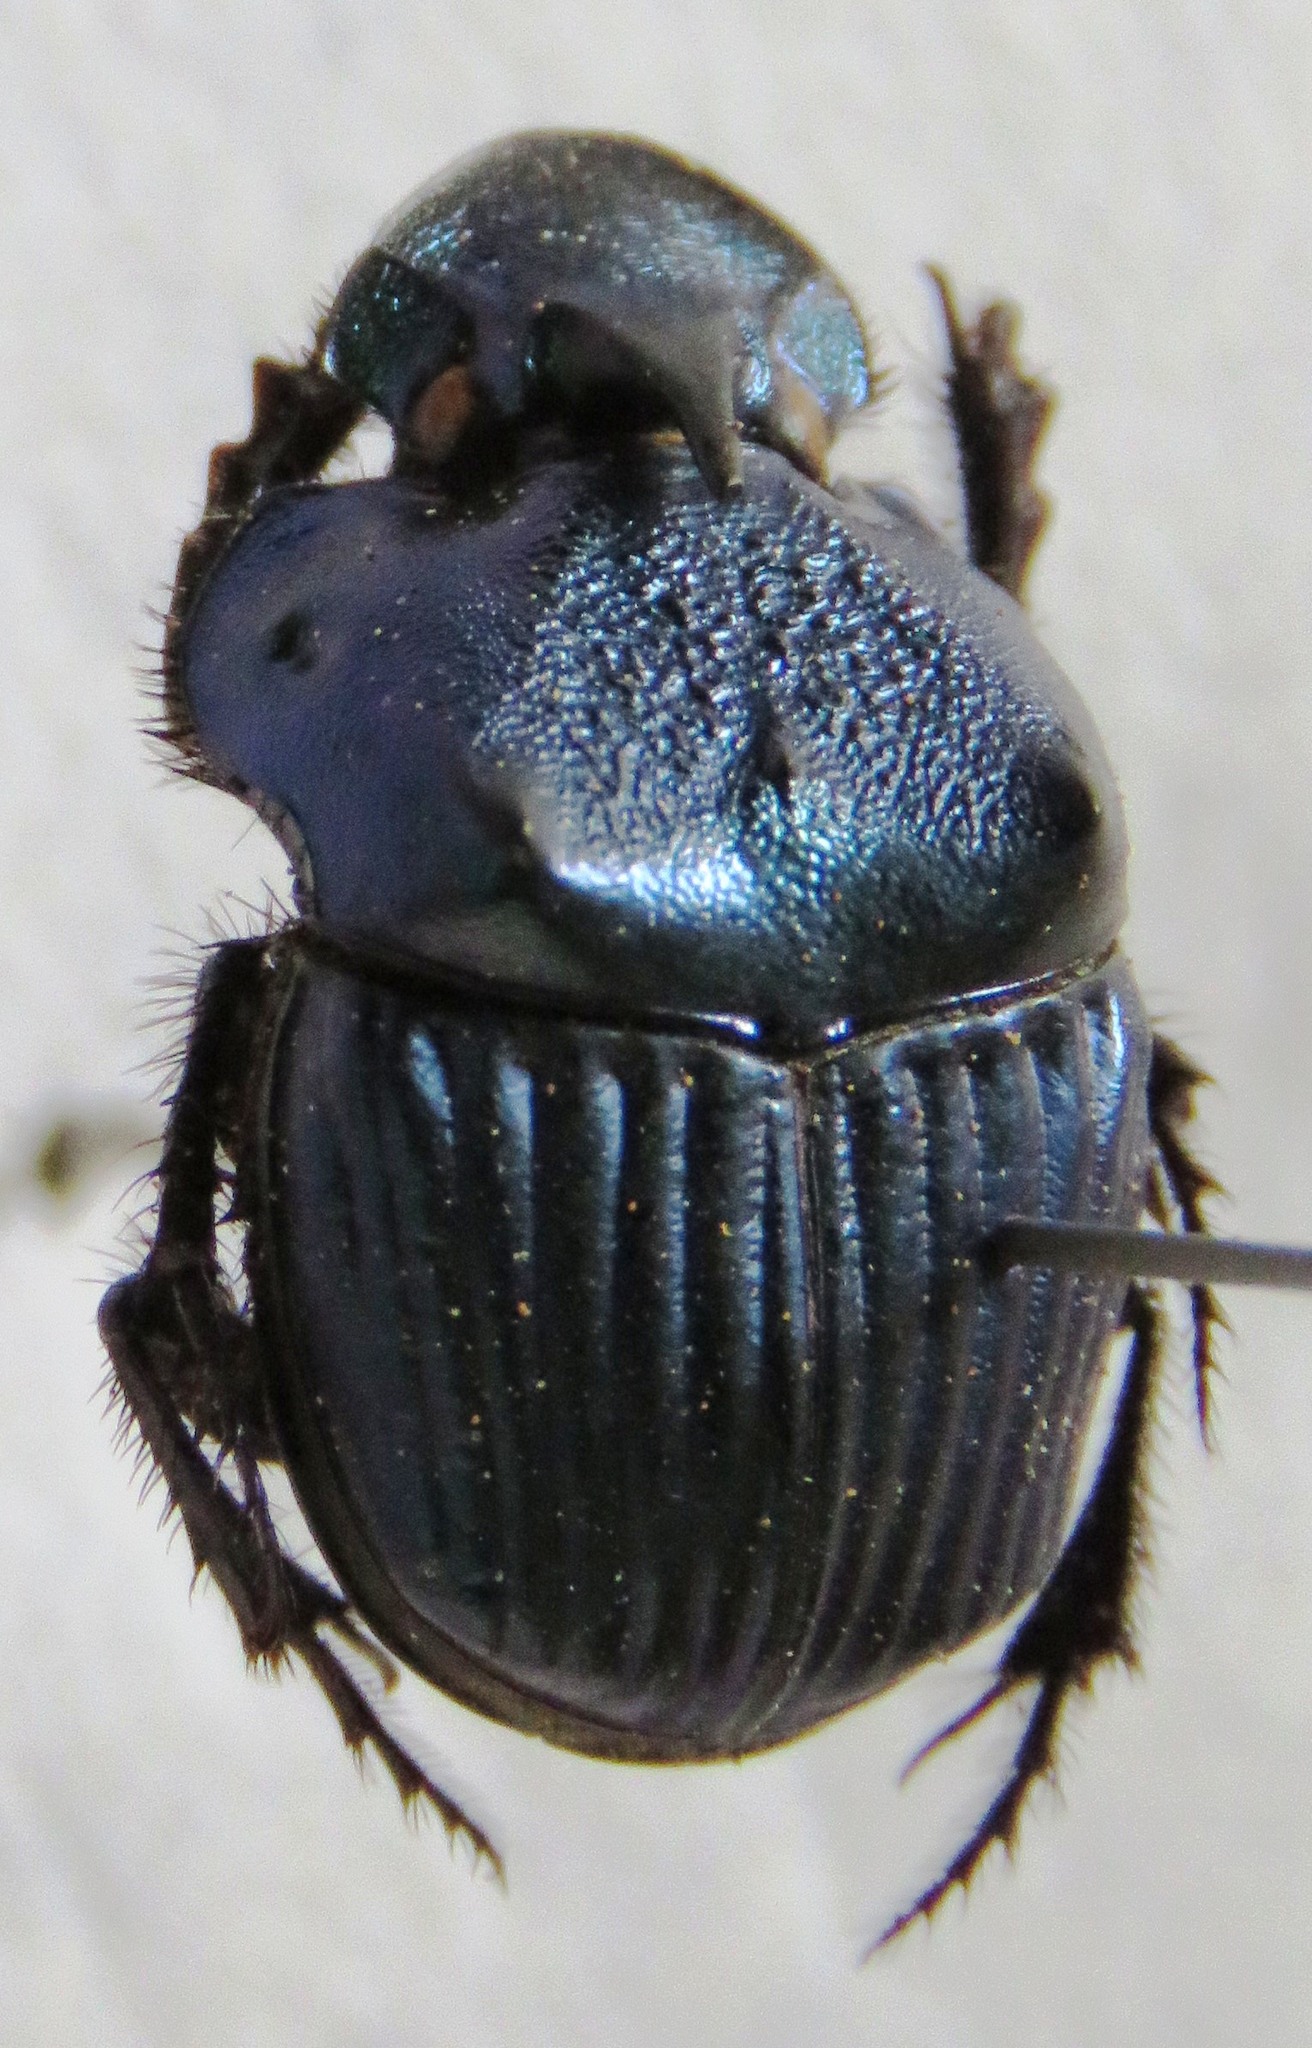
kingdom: Animalia
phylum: Arthropoda
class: Insecta
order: Coleoptera
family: Scarabaeidae
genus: Phanaeus
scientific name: Phanaeus eximius
